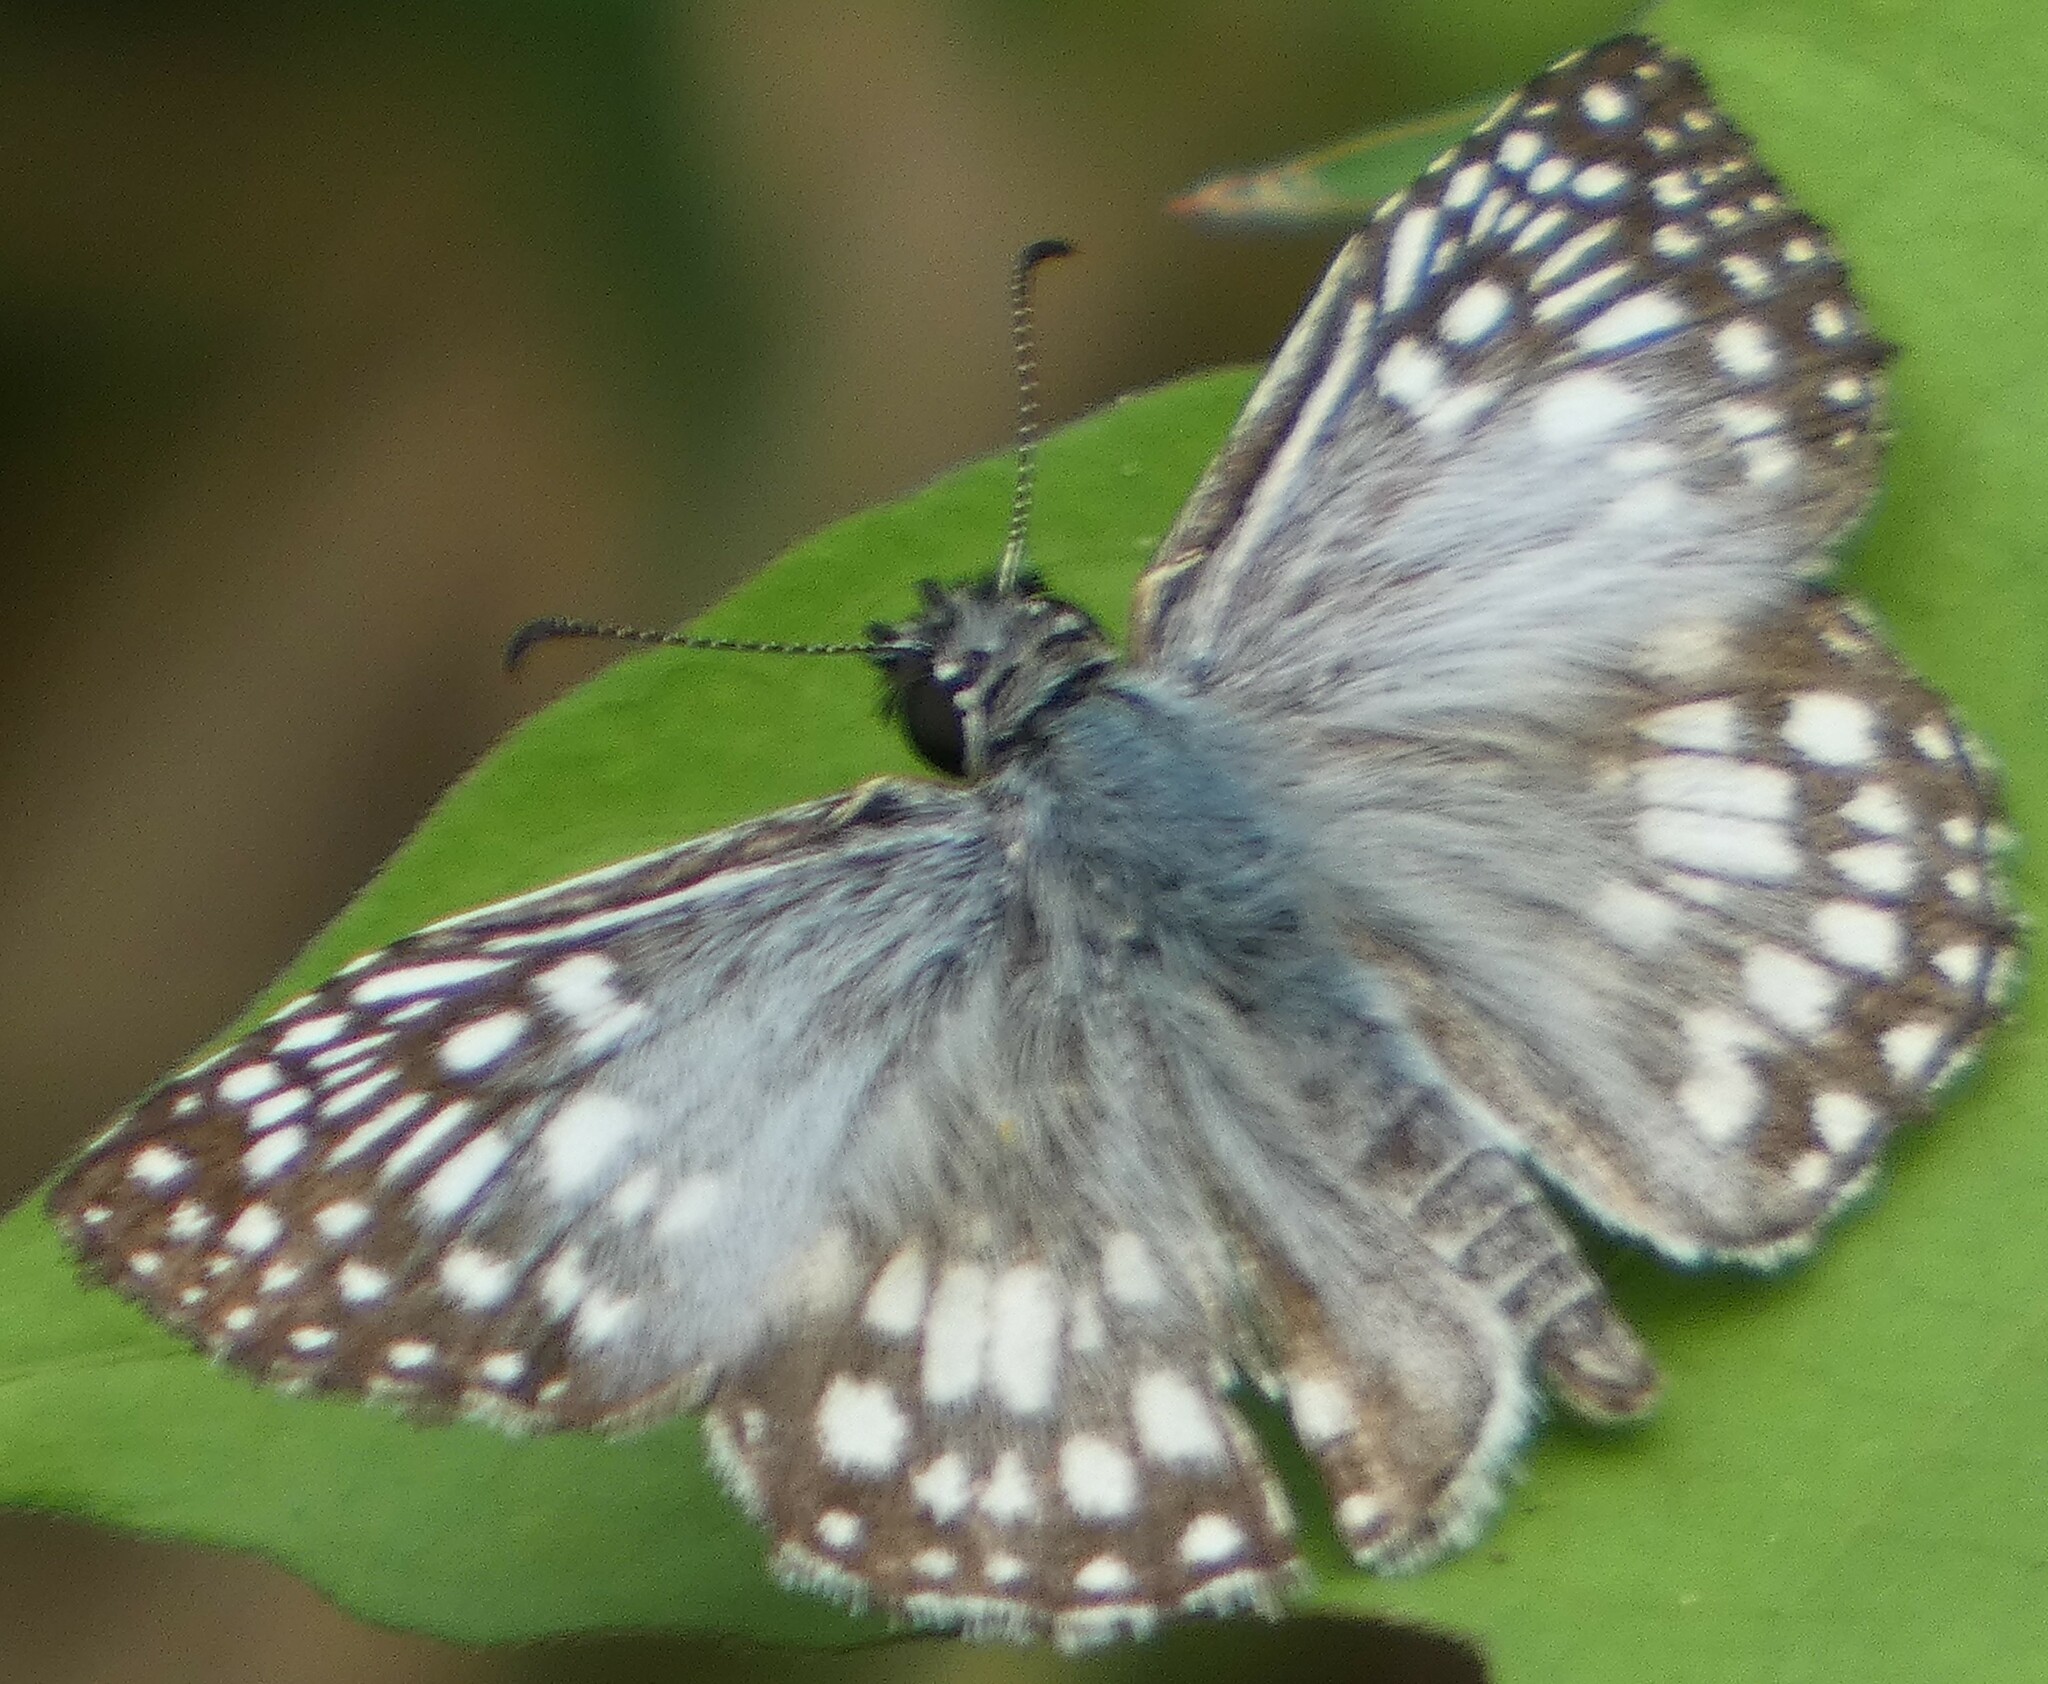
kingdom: Animalia
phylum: Arthropoda
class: Insecta
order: Lepidoptera
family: Hesperiidae
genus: Pyrgus
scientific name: Pyrgus oileus
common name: Tropical checkered-skipper
